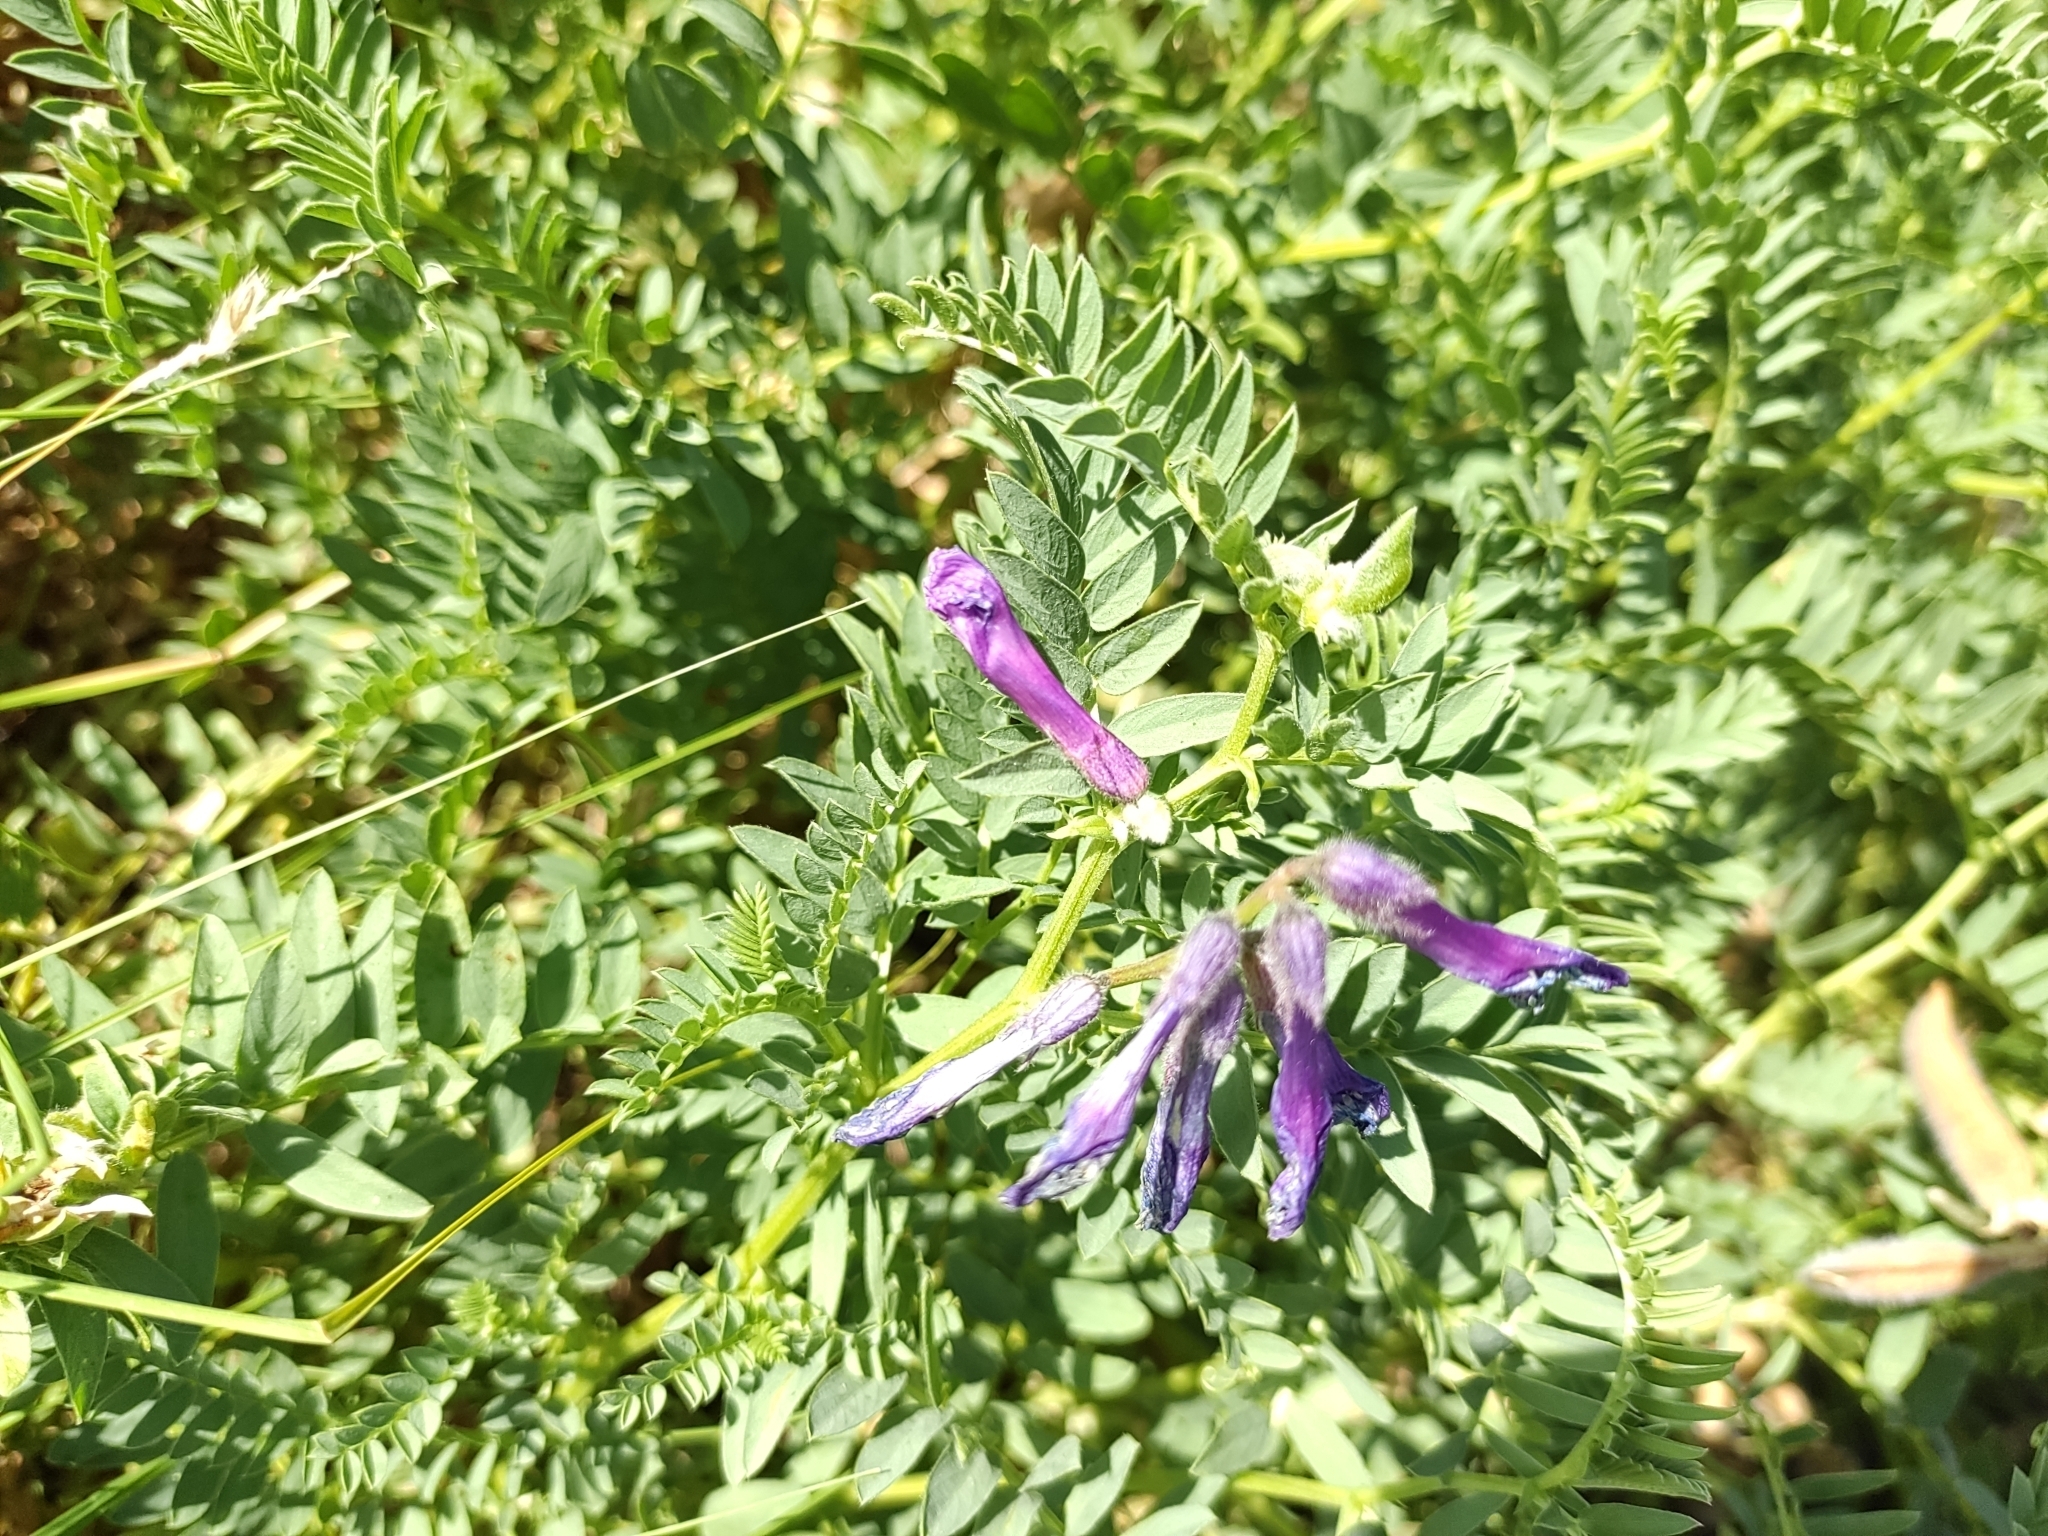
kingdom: Plantae
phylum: Tracheophyta
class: Magnoliopsida
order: Fabales
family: Fabaceae
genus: Vicia
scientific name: Vicia cracca
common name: Bird vetch
